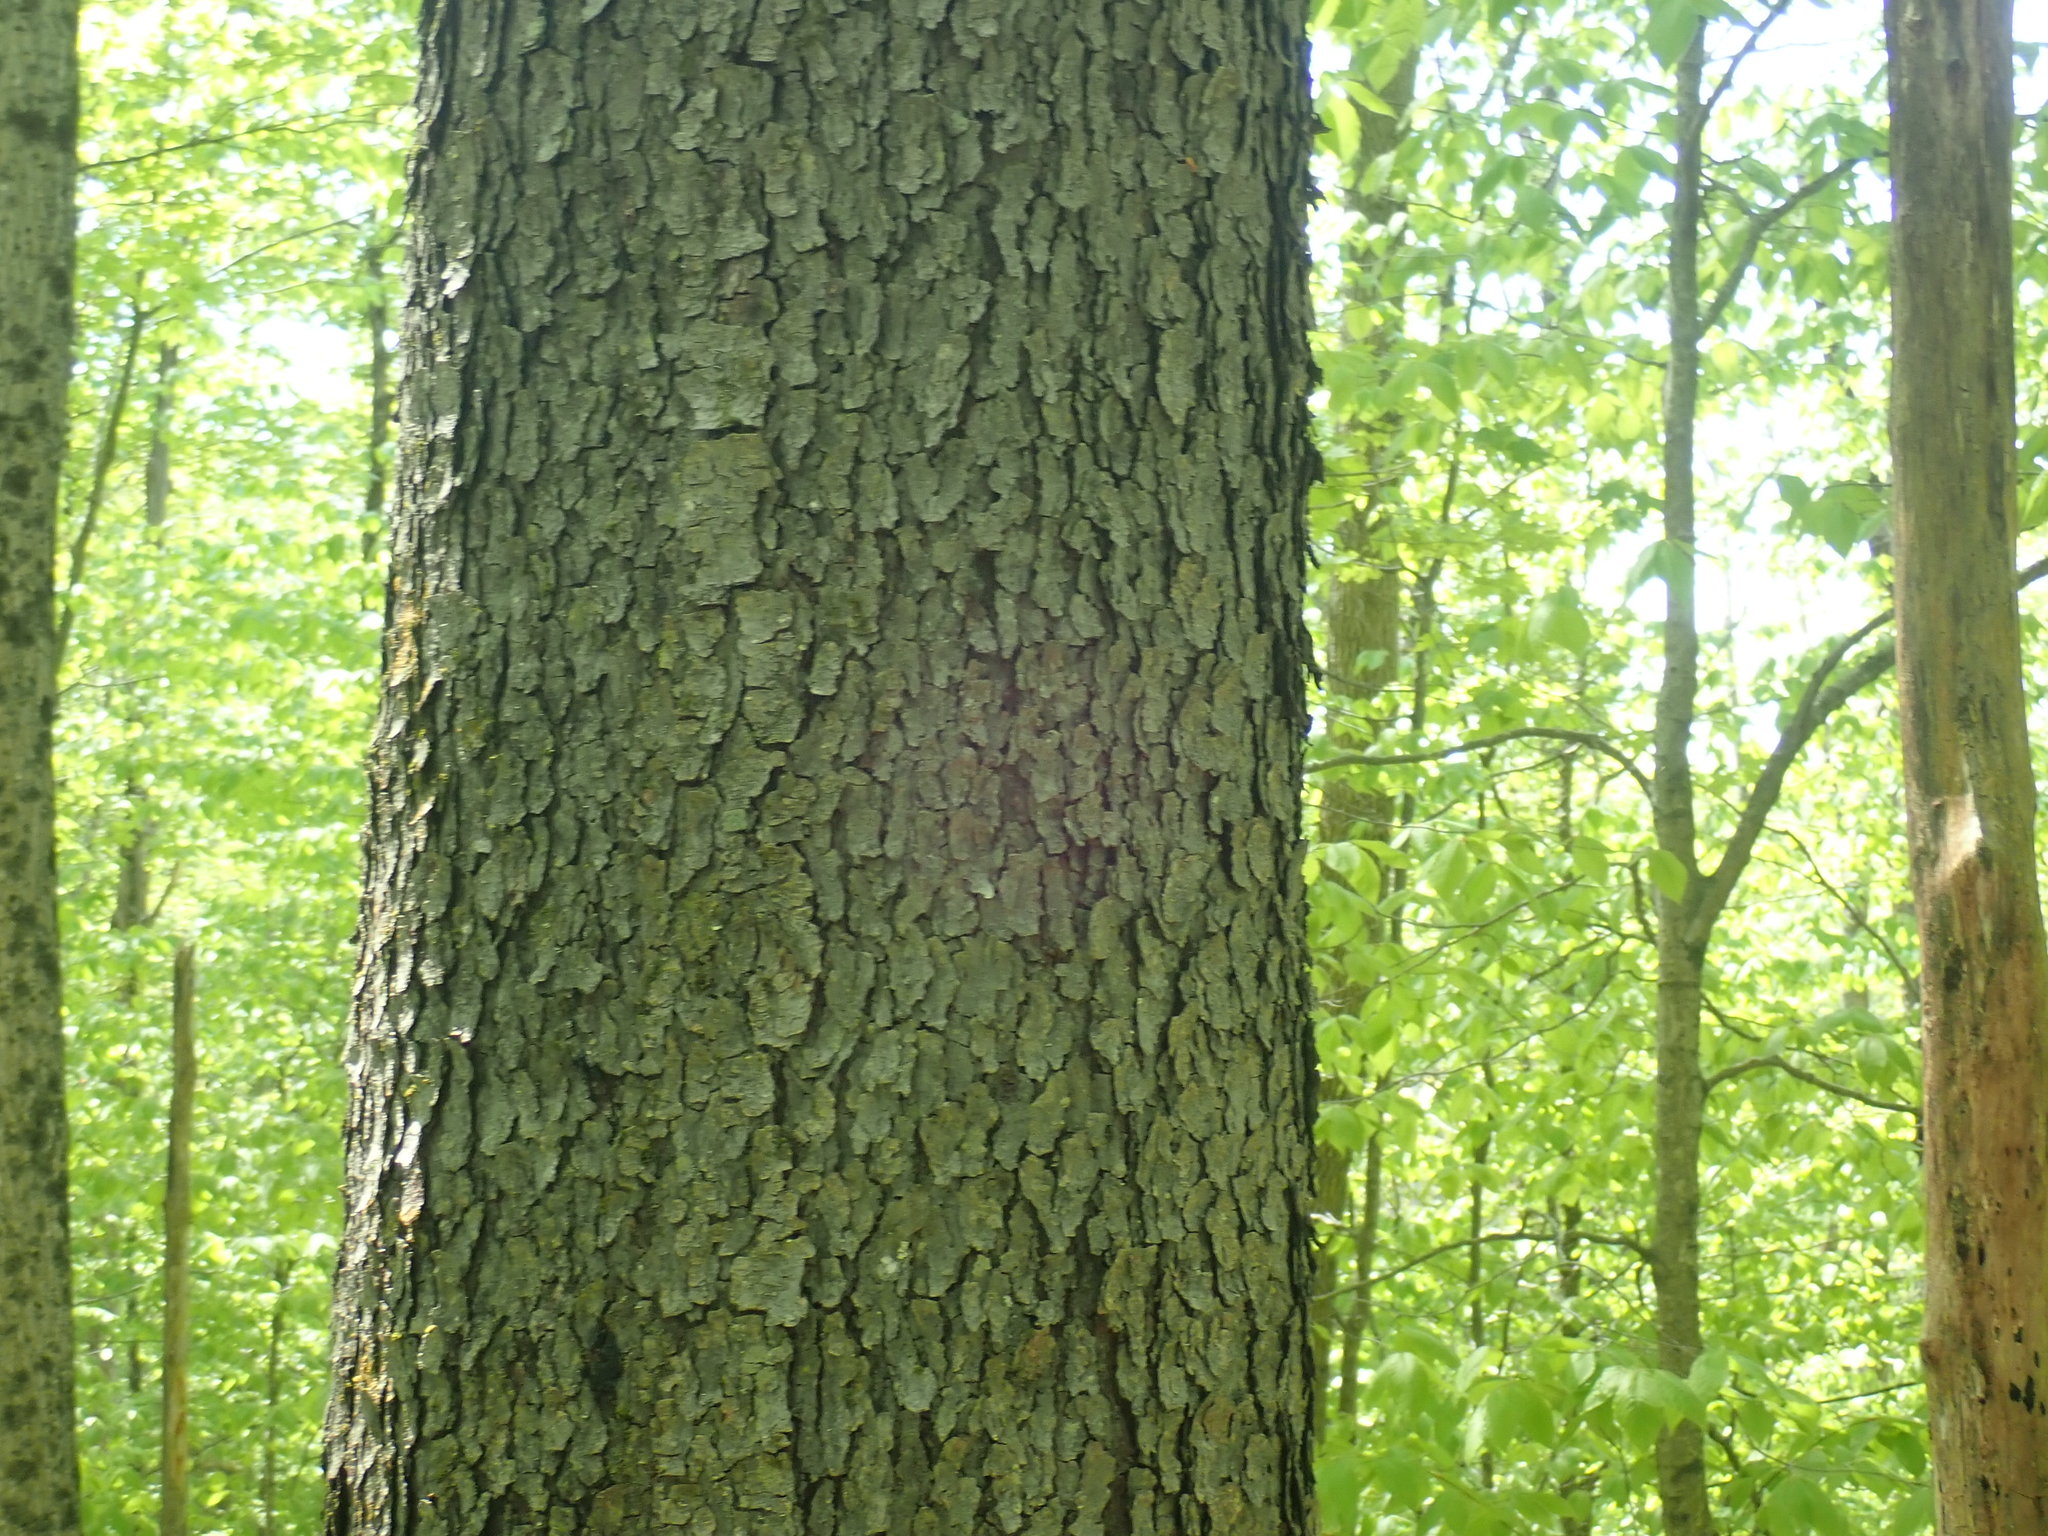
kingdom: Plantae
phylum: Tracheophyta
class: Magnoliopsida
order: Rosales
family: Rosaceae
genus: Prunus
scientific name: Prunus serotina
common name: Black cherry
